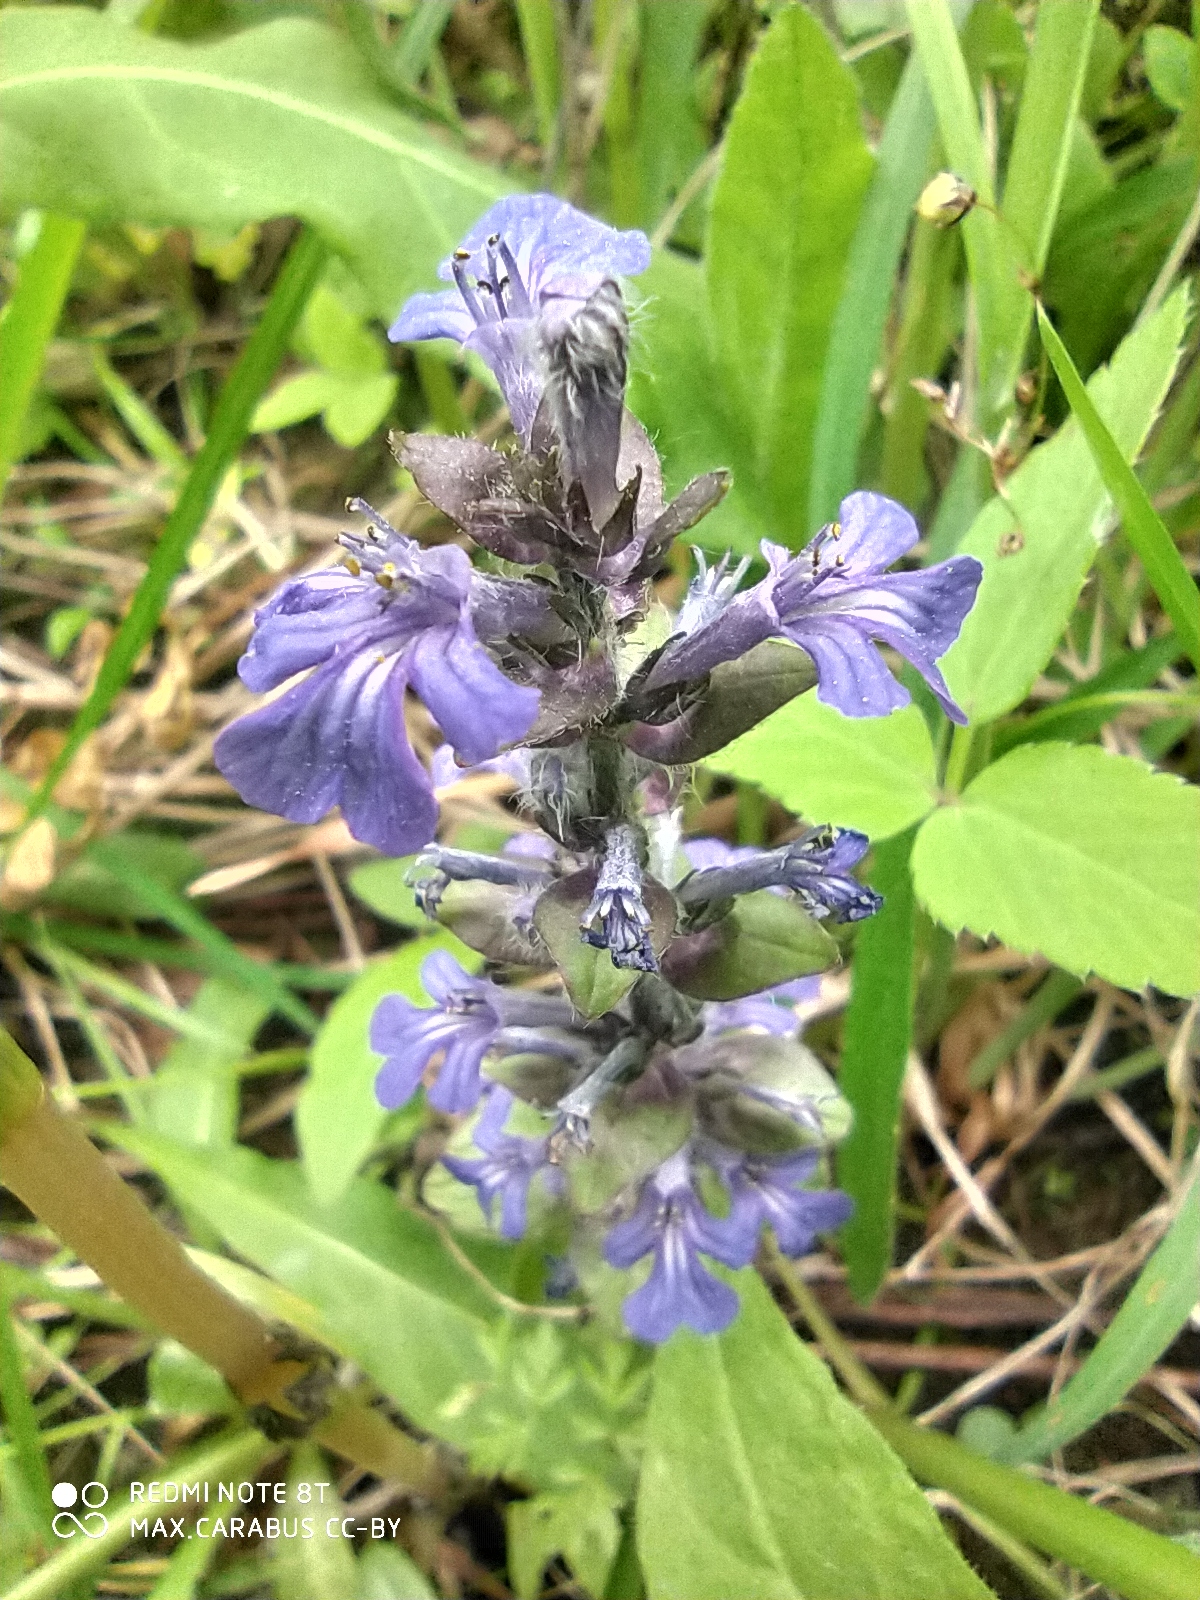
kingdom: Plantae
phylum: Tracheophyta
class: Magnoliopsida
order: Lamiales
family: Lamiaceae
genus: Ajuga
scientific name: Ajuga reptans
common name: Bugle
